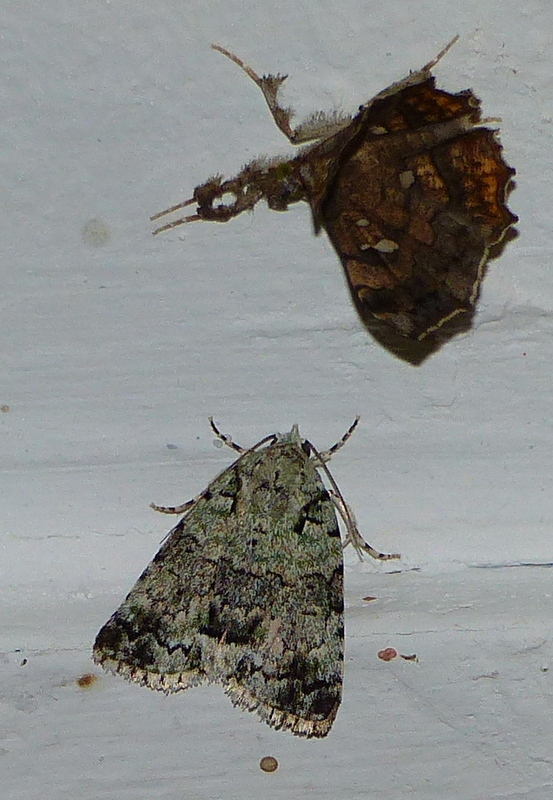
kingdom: Animalia
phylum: Arthropoda
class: Insecta
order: Lepidoptera
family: Erebidae
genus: Egnasia
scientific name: Egnasia vicaria
